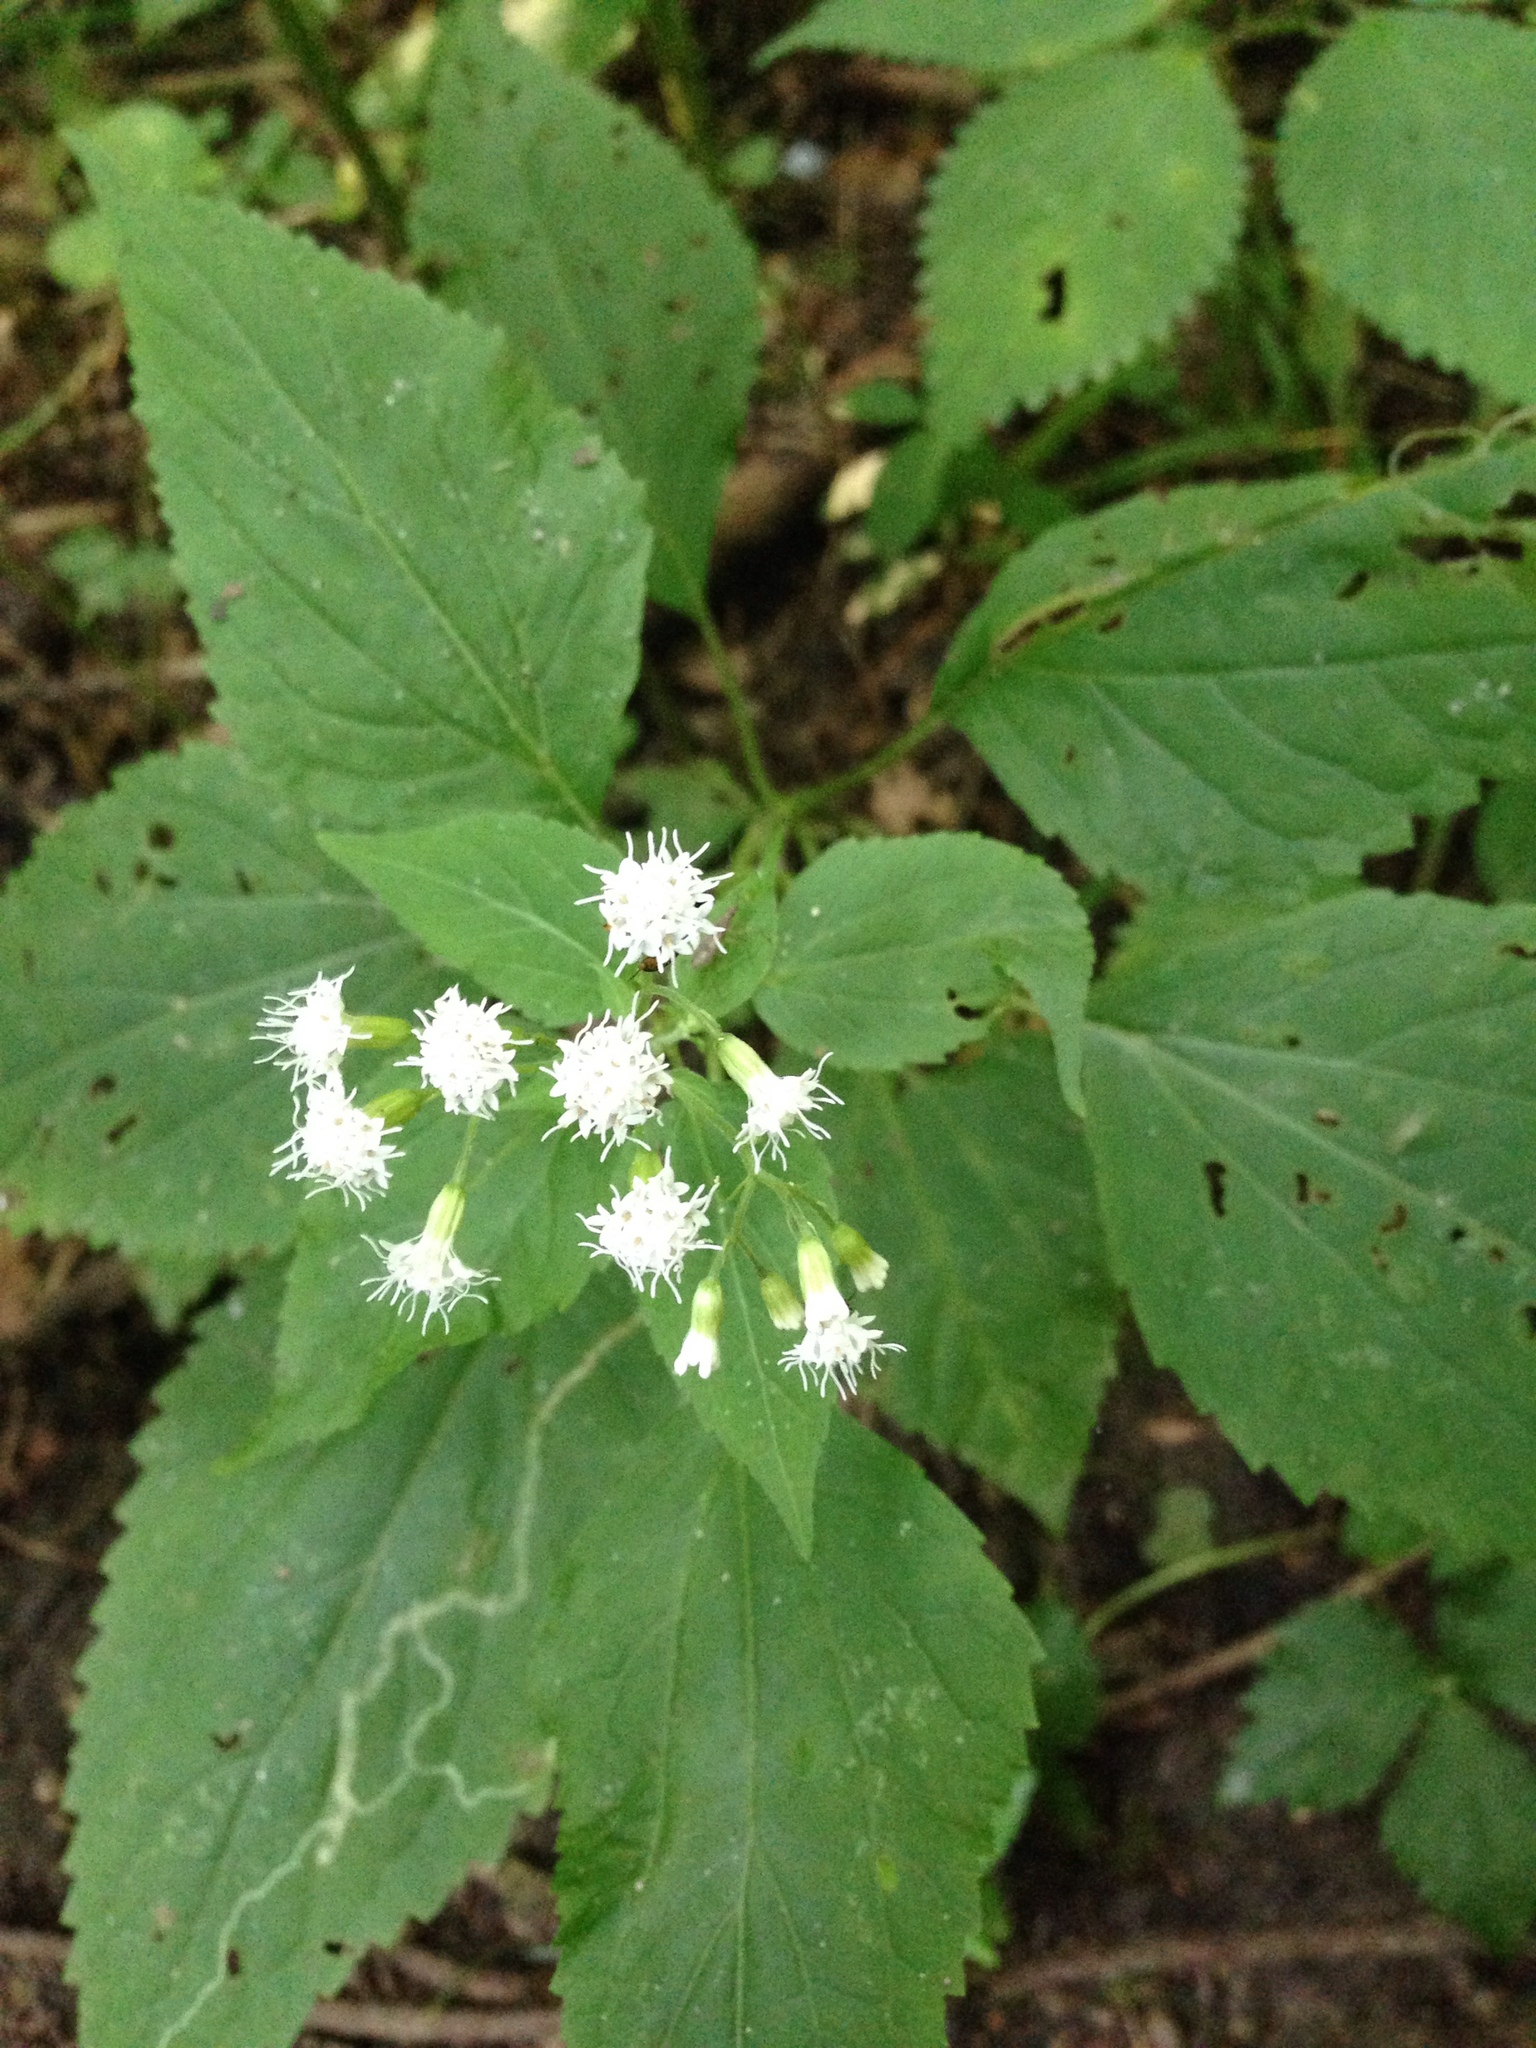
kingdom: Plantae
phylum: Tracheophyta
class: Magnoliopsida
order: Asterales
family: Asteraceae
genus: Ageratina
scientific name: Ageratina altissima
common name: White snakeroot
